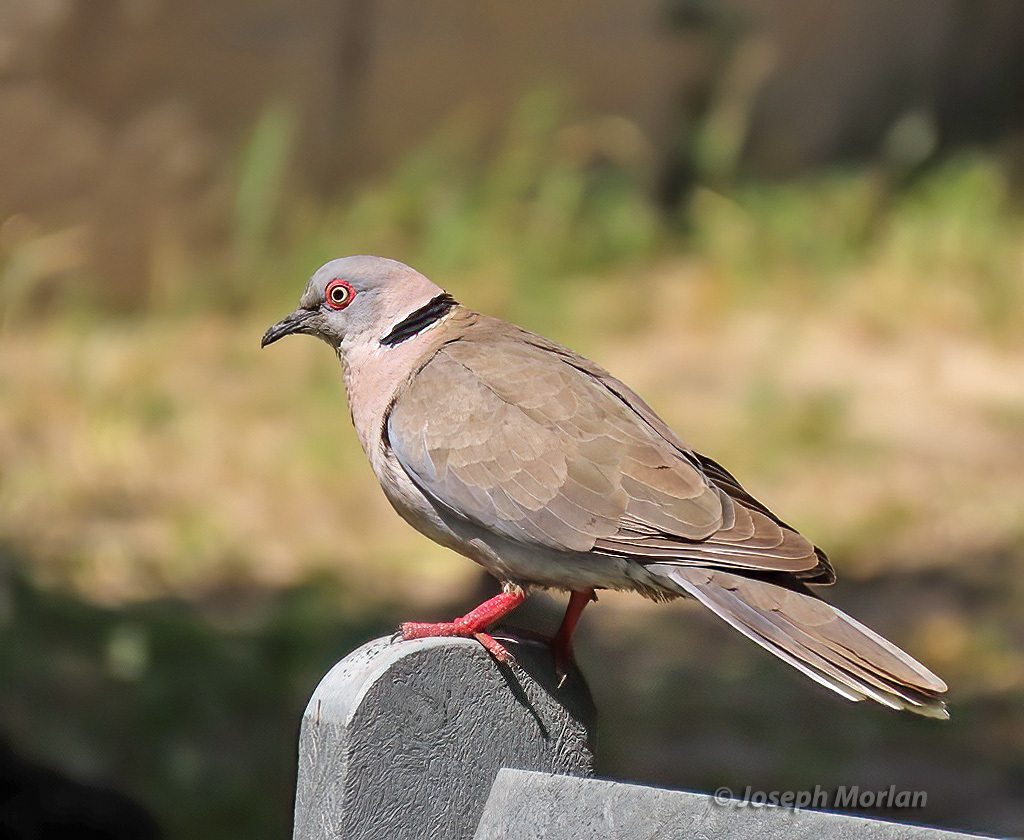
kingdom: Animalia
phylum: Chordata
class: Aves
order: Columbiformes
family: Columbidae
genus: Streptopelia
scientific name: Streptopelia decipiens
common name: Mourning collared dove
